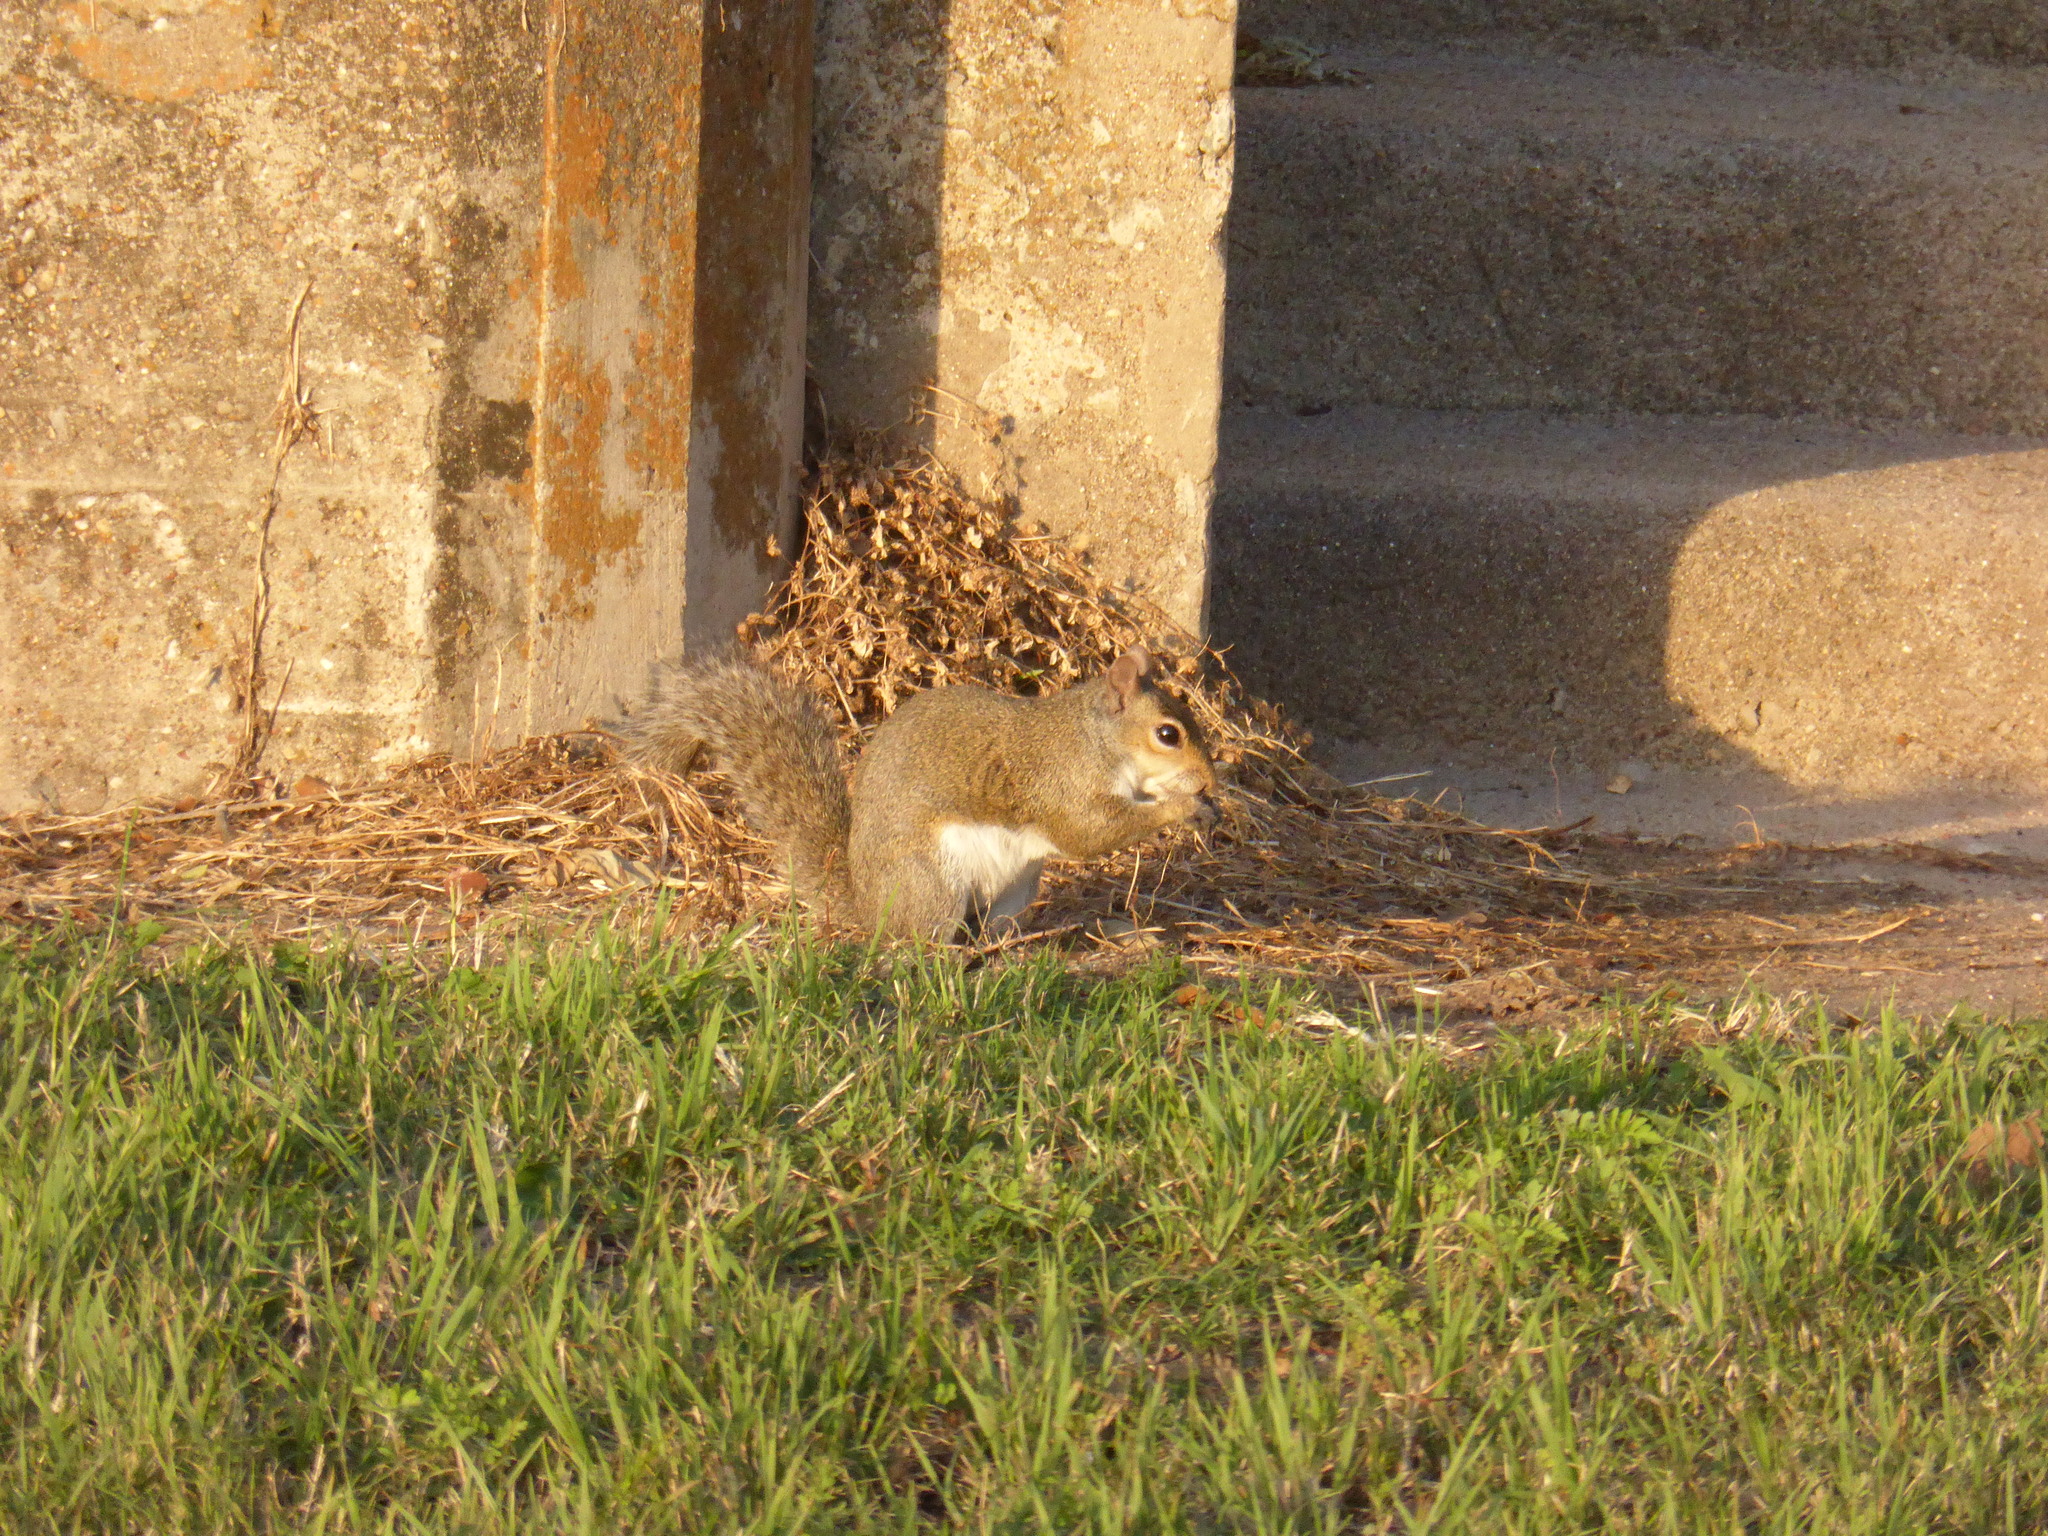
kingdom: Animalia
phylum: Chordata
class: Mammalia
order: Rodentia
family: Sciuridae
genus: Sciurus
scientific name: Sciurus carolinensis
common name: Eastern gray squirrel
